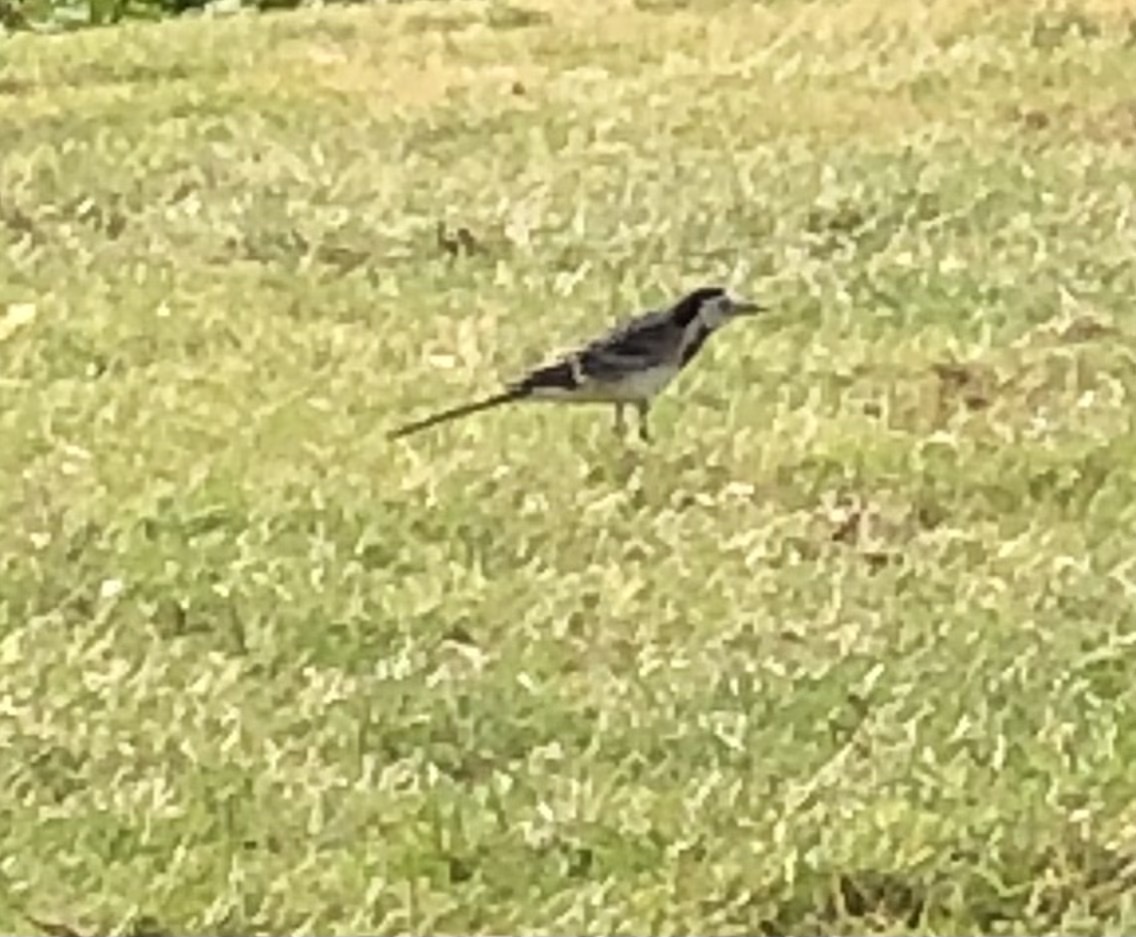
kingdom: Animalia
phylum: Chordata
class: Aves
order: Passeriformes
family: Motacillidae
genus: Motacilla
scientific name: Motacilla alba
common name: White wagtail
